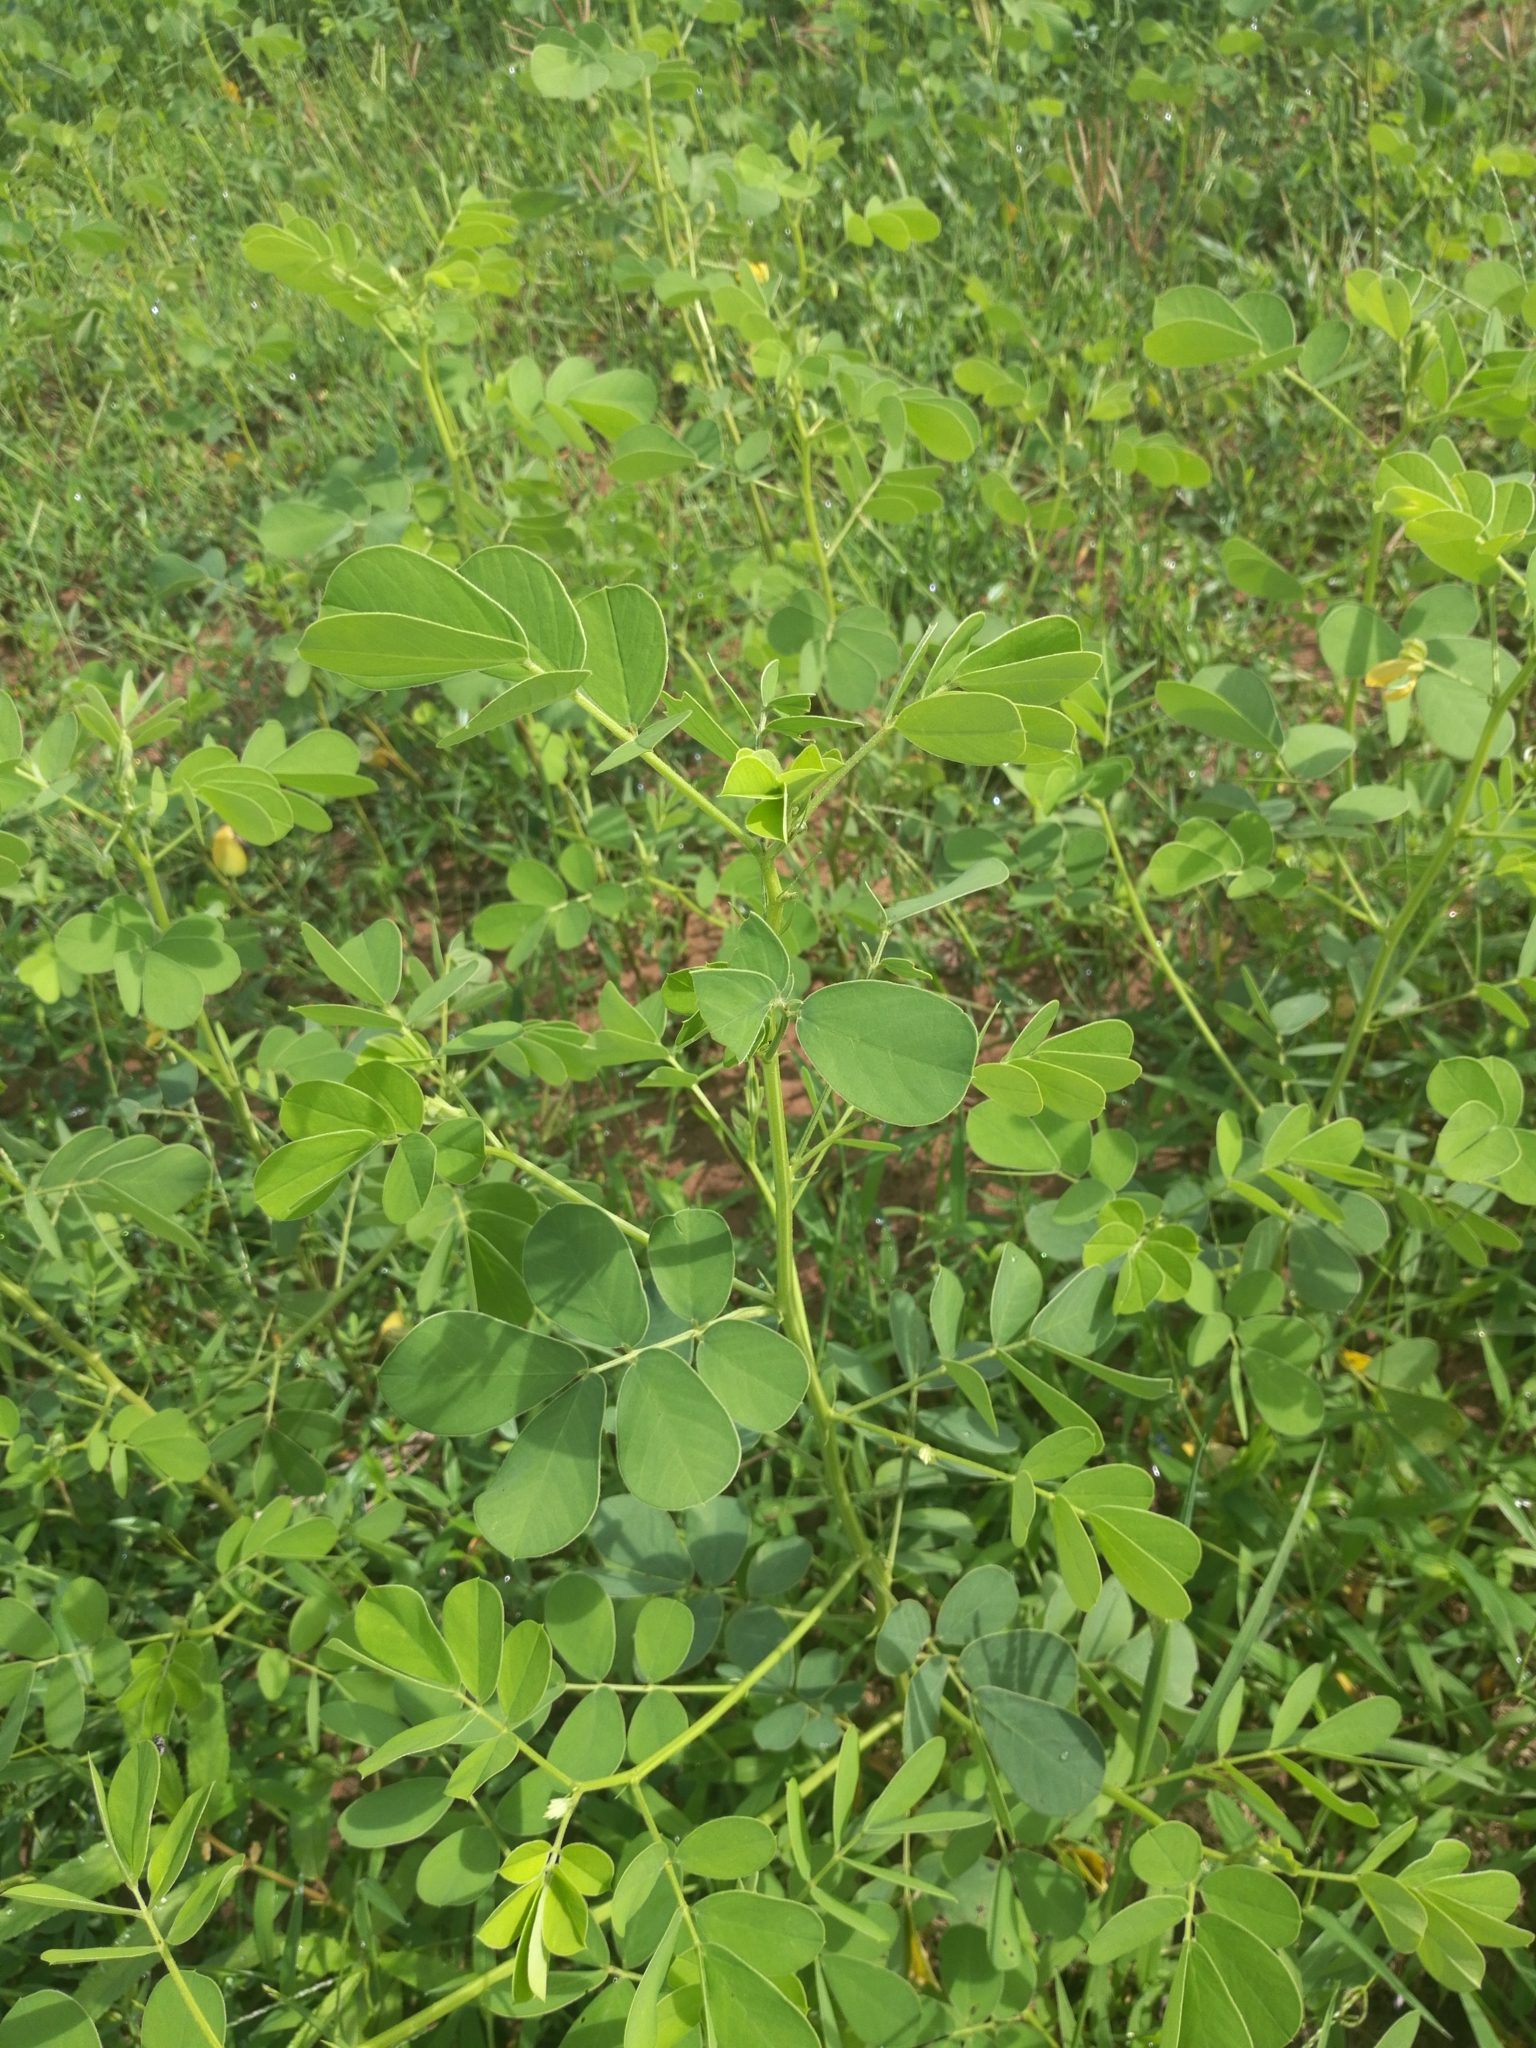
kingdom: Plantae
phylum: Tracheophyta
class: Magnoliopsida
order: Fabales
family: Fabaceae
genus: Senna
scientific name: Senna obtusifolia
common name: Java-bean
